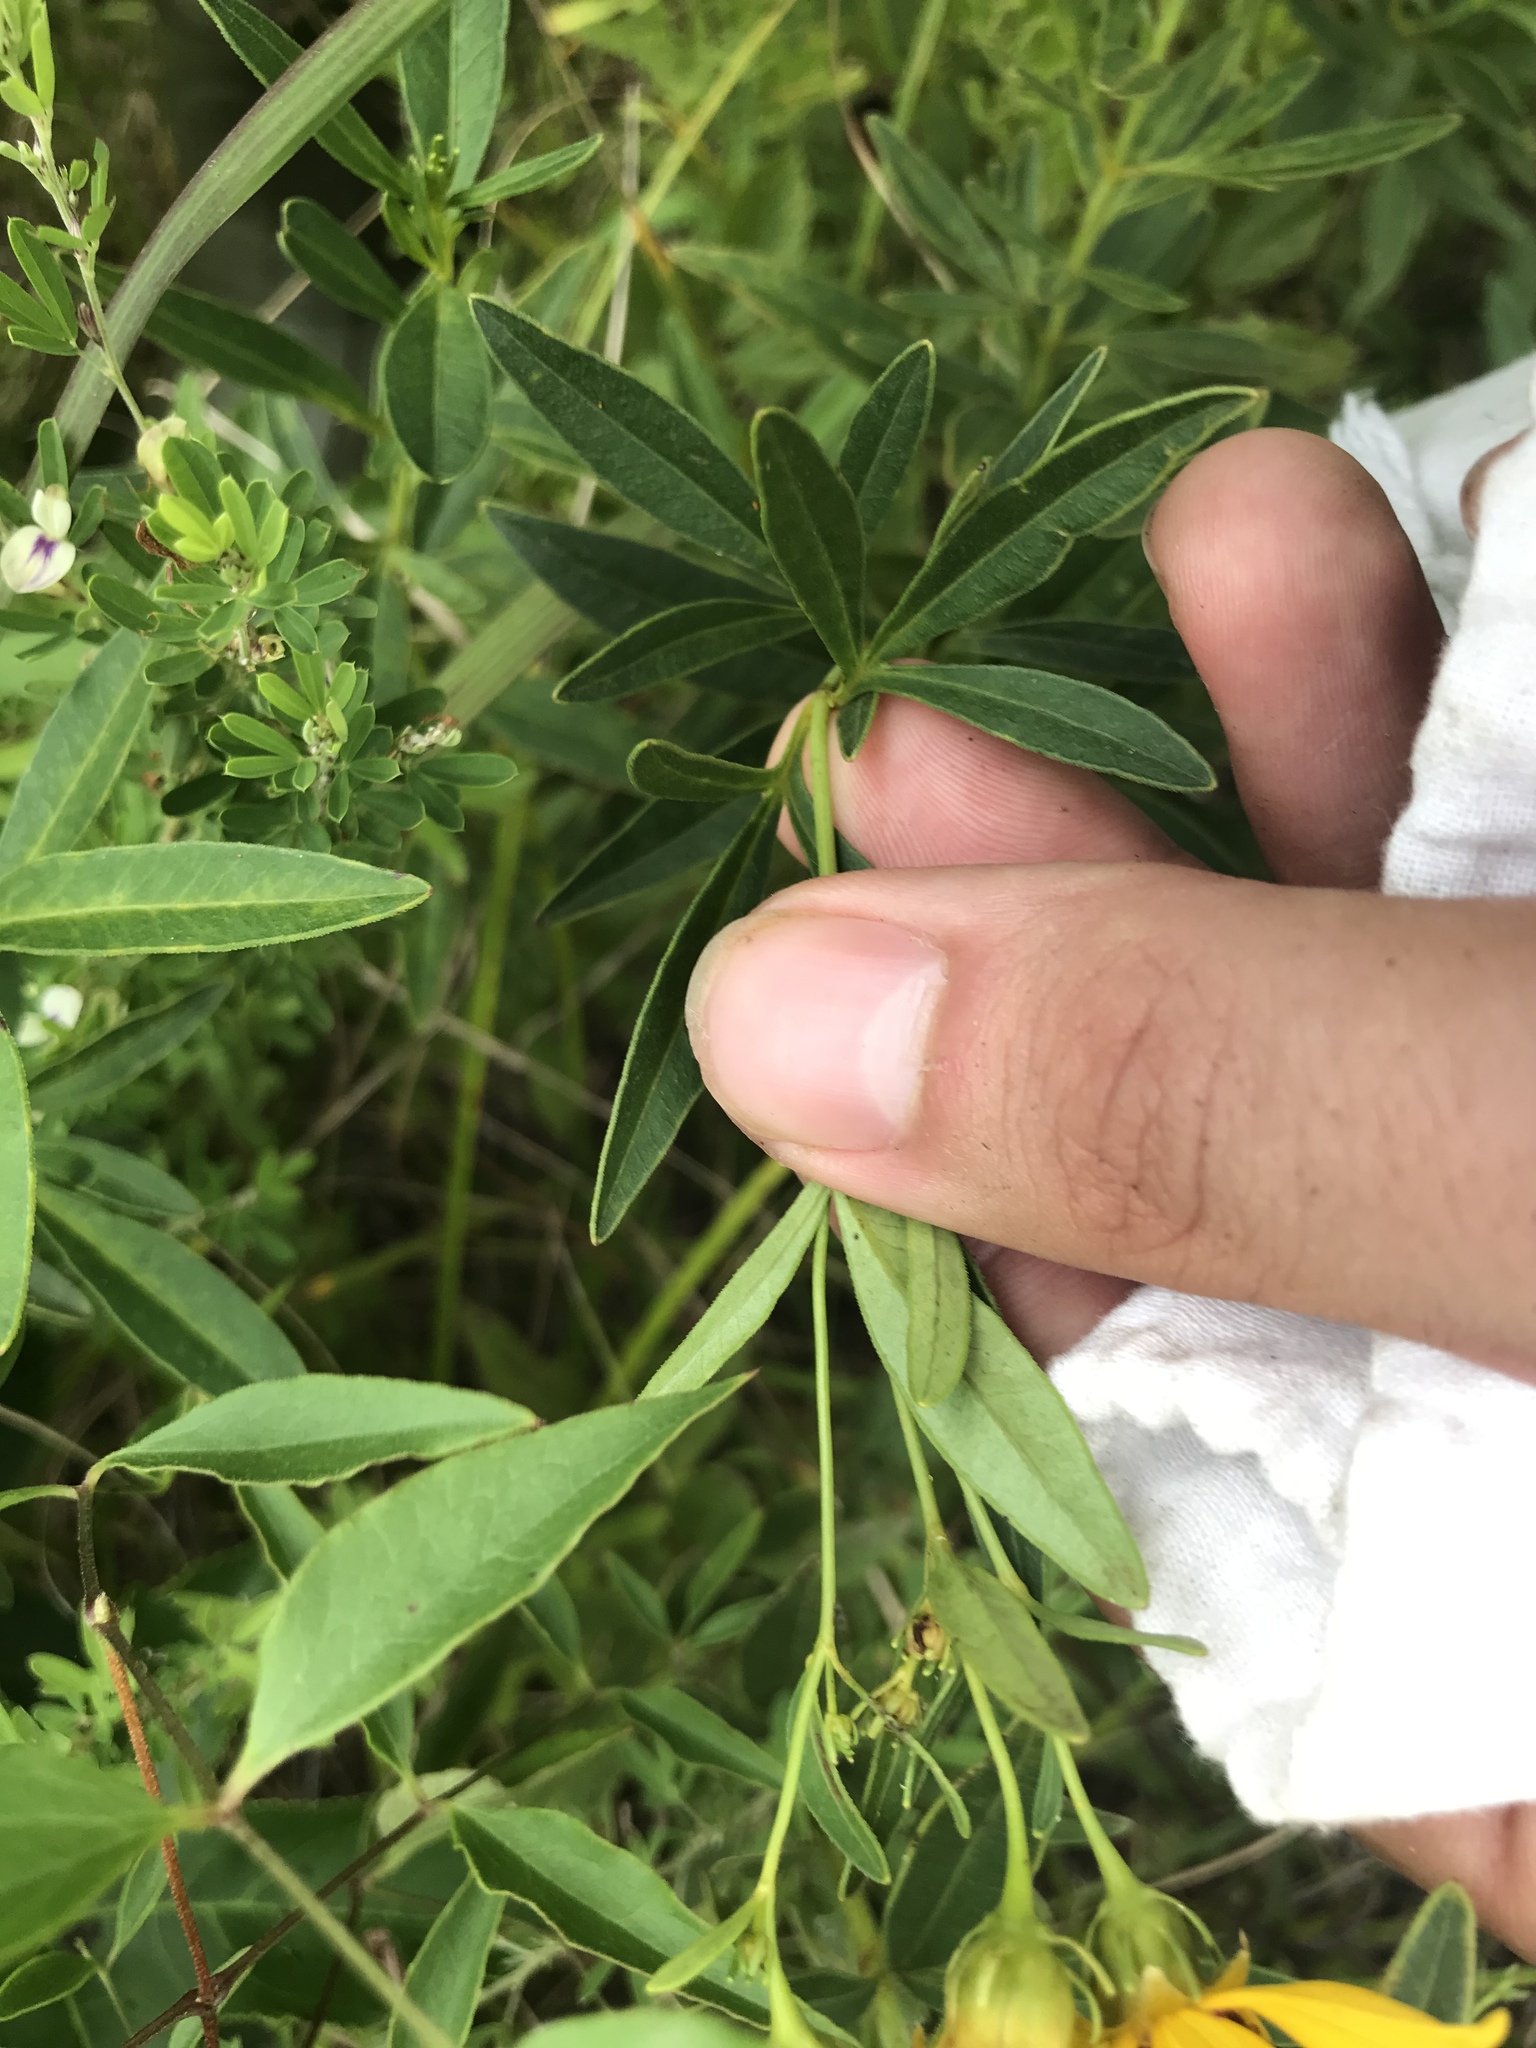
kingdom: Plantae
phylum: Tracheophyta
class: Magnoliopsida
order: Asterales
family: Asteraceae
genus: Coreopsis
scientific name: Coreopsis tripteris
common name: Tall coreopsis
